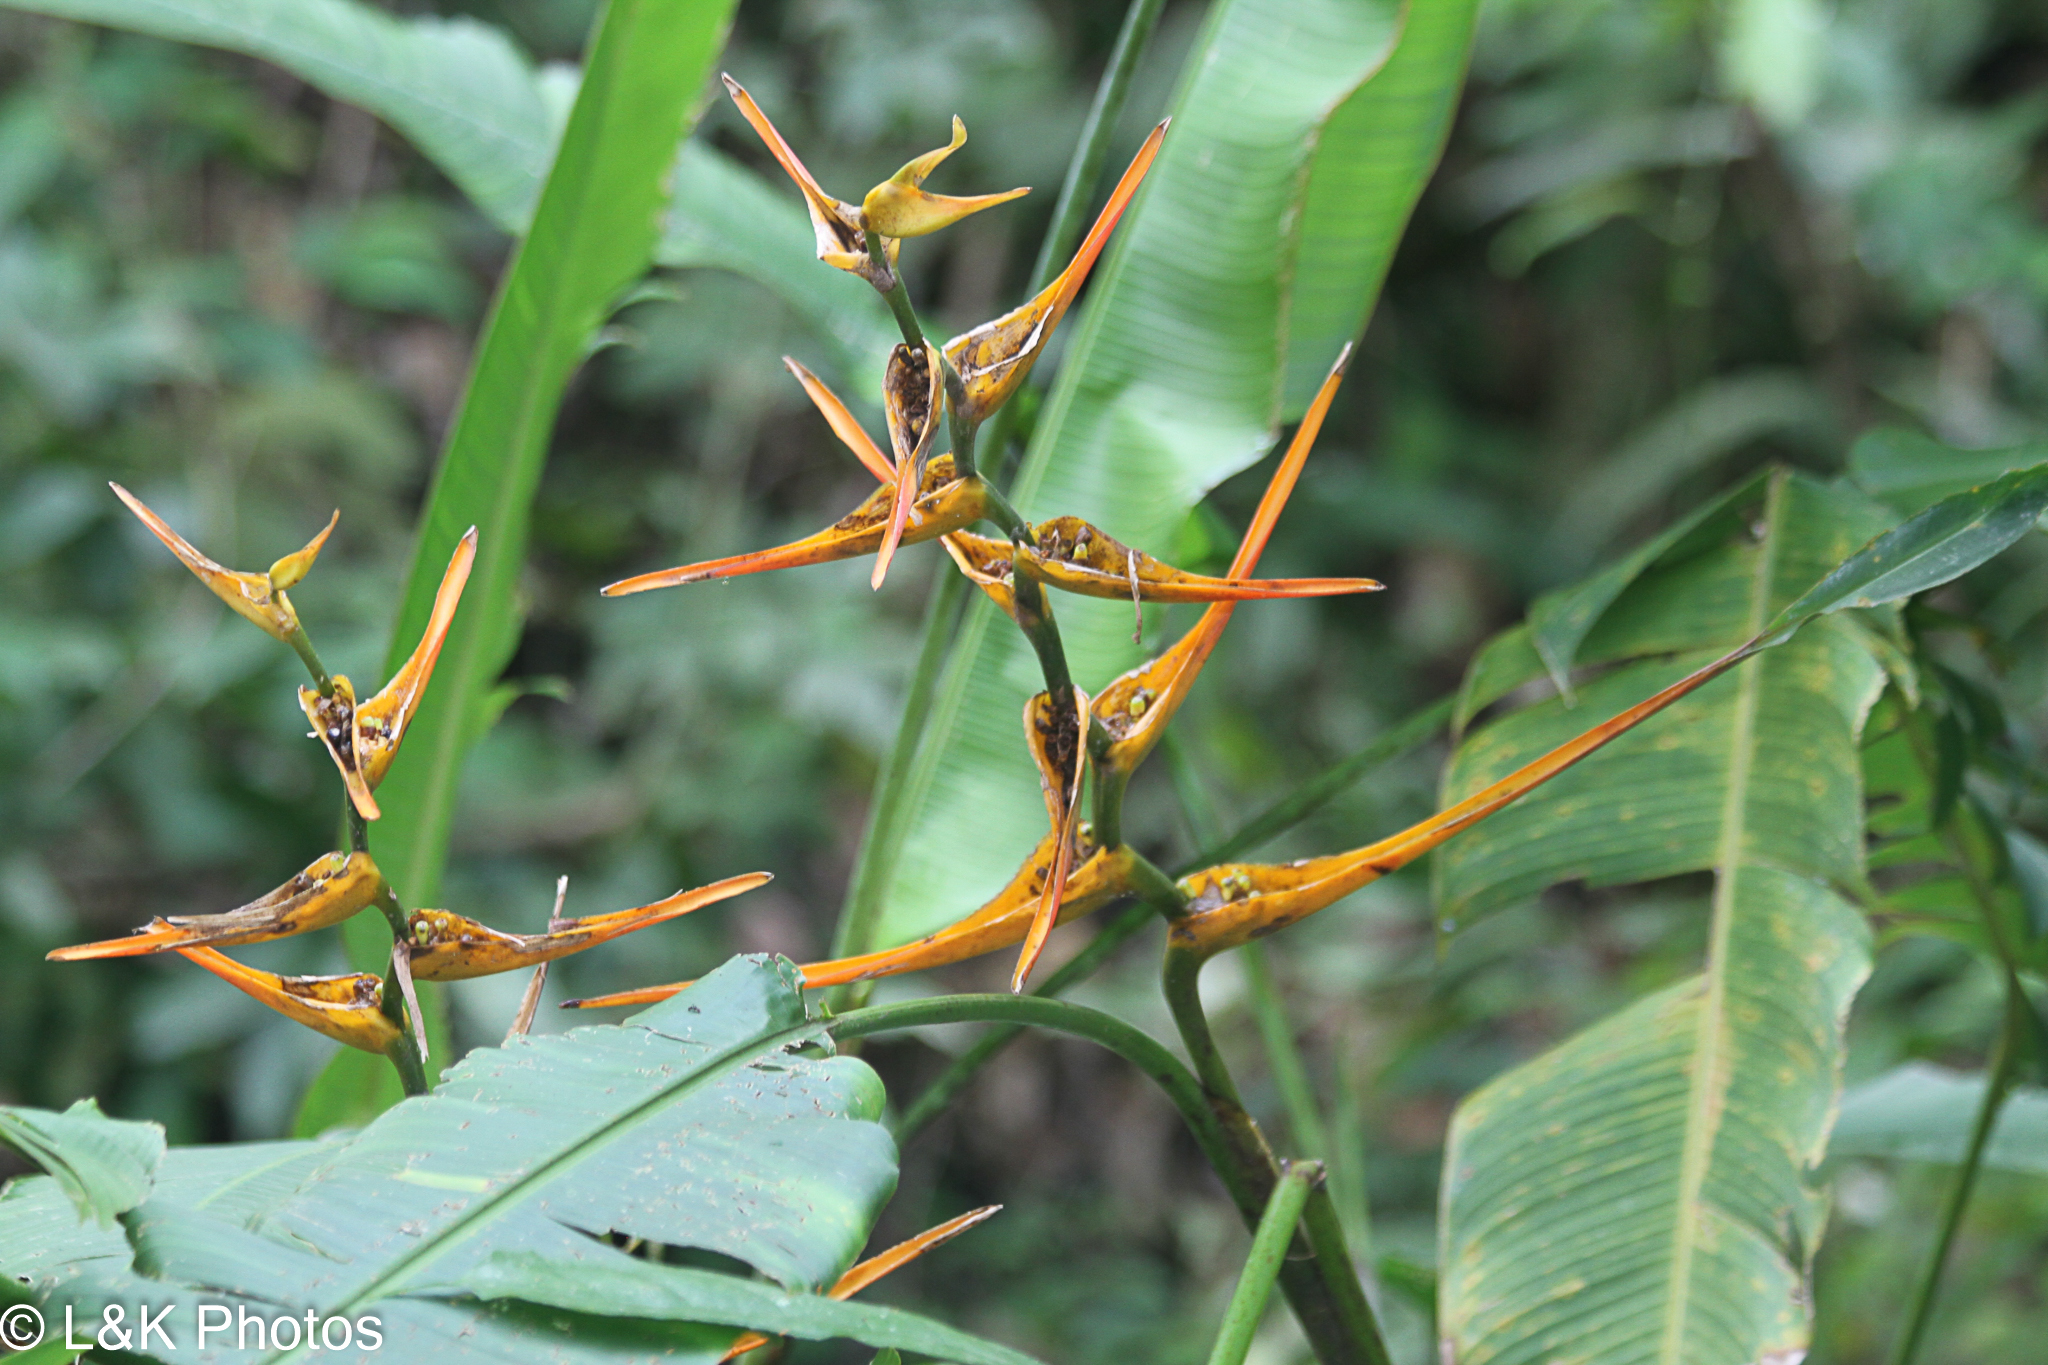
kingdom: Plantae
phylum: Tracheophyta
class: Liliopsida
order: Zingiberales
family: Heliconiaceae
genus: Heliconia
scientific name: Heliconia latispatha
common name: Expanded lobsterclaw
